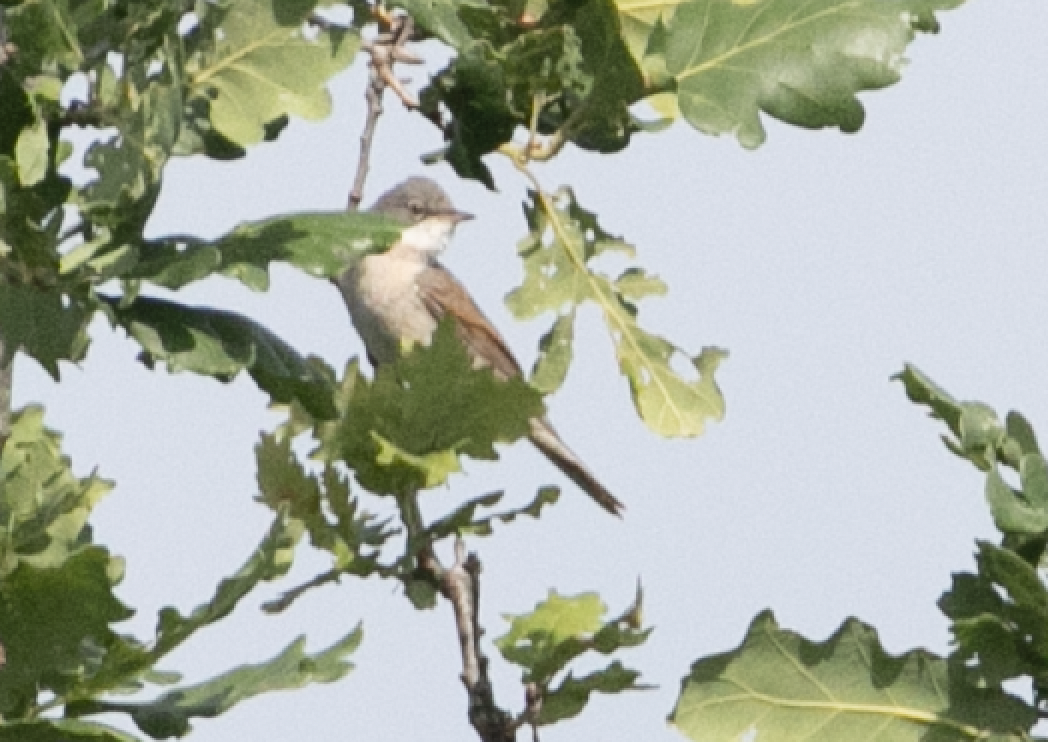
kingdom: Animalia
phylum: Chordata
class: Aves
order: Passeriformes
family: Sylviidae
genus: Sylvia
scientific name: Sylvia communis
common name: Common whitethroat
